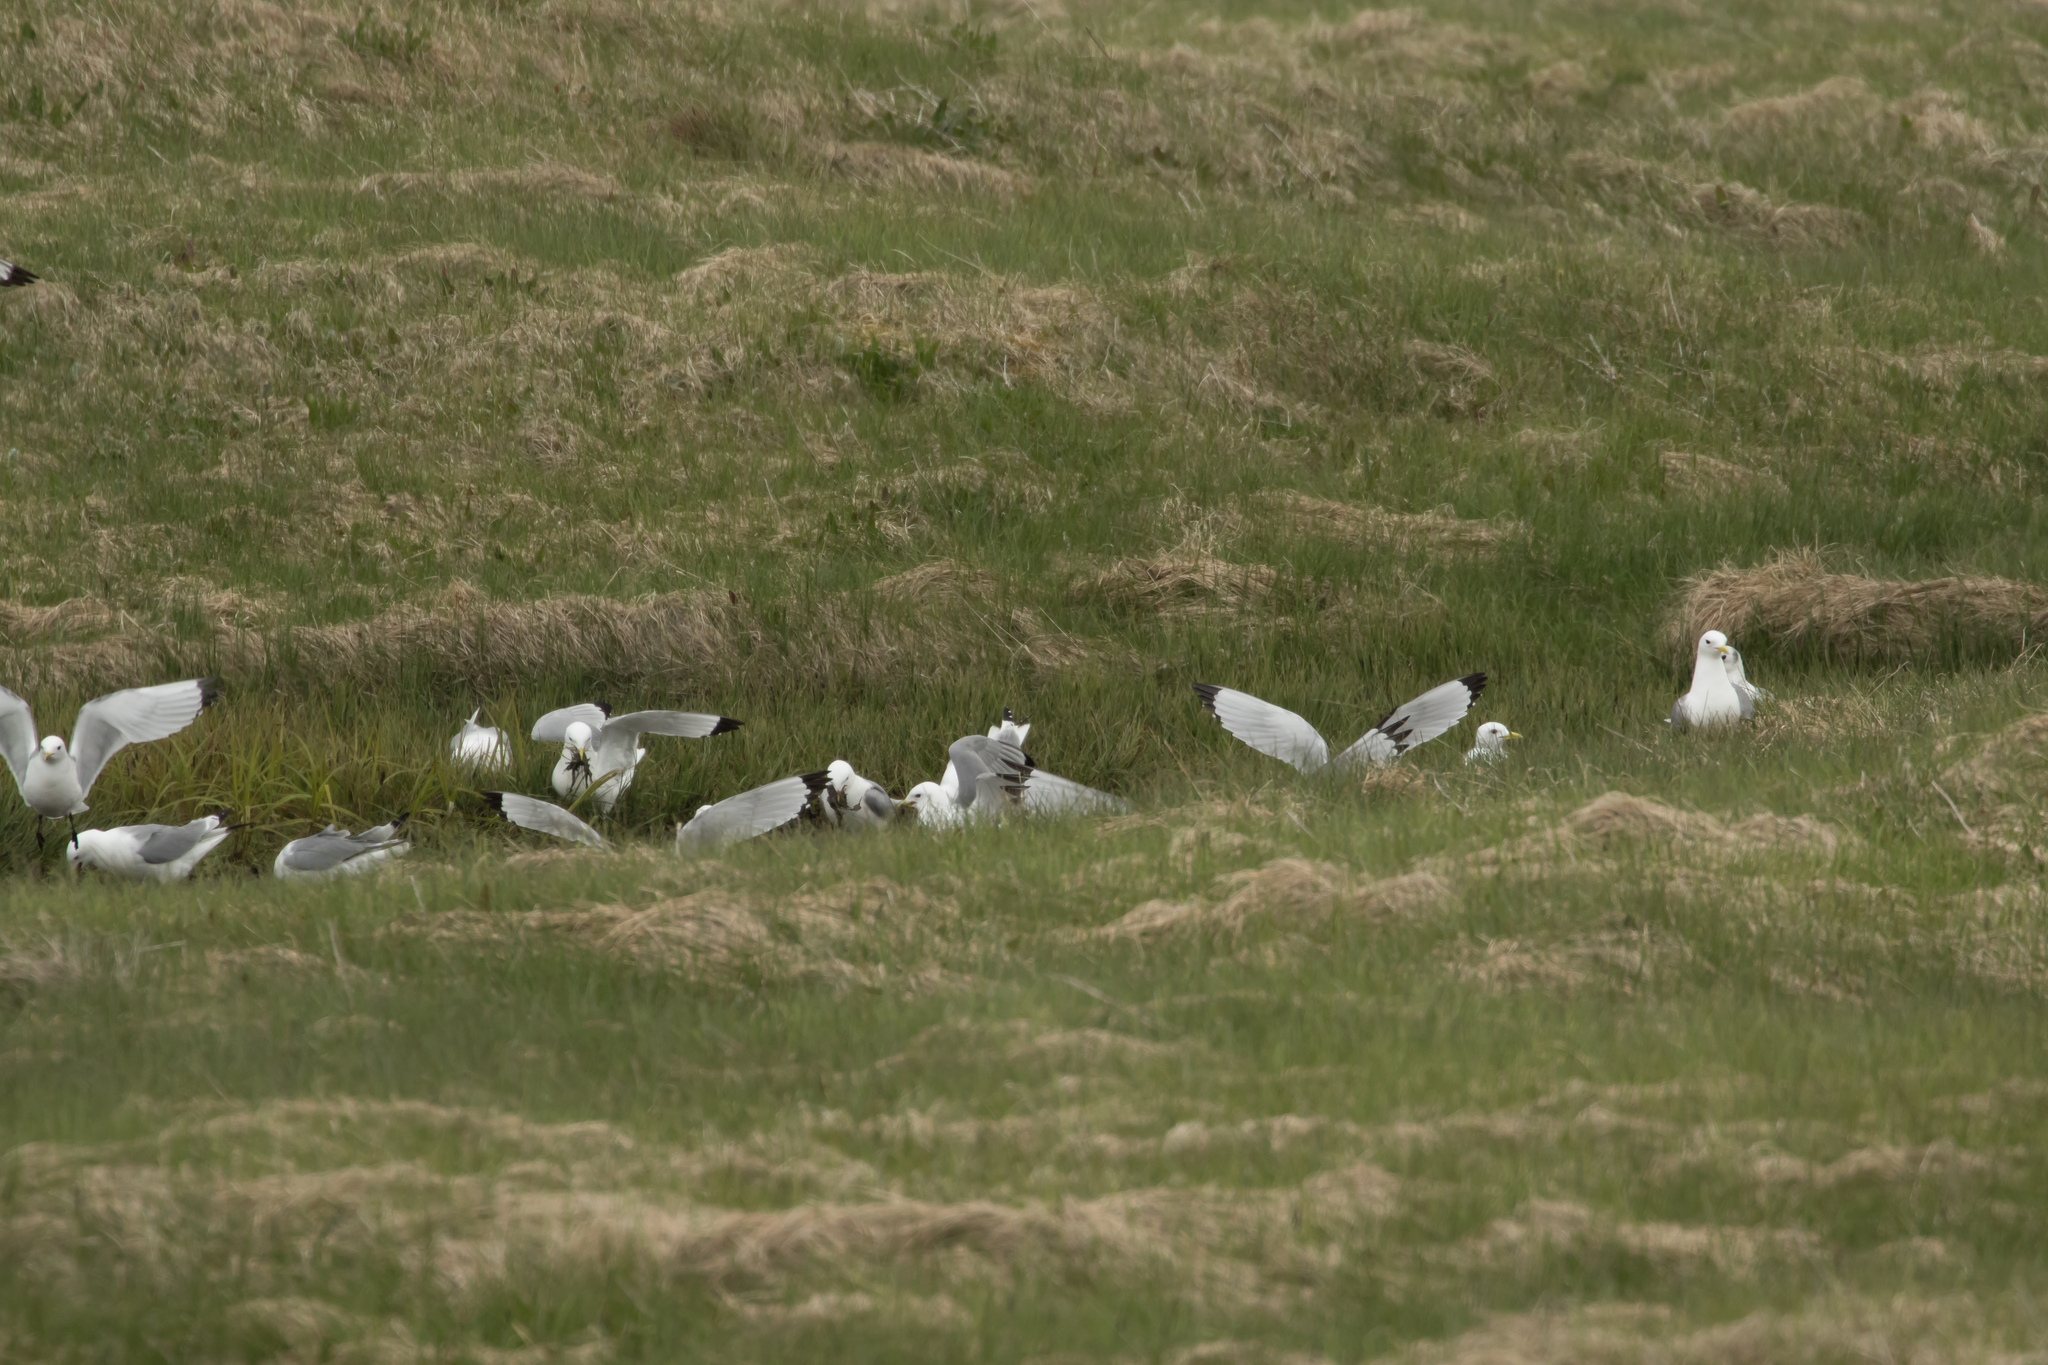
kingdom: Animalia
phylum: Chordata
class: Aves
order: Charadriiformes
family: Laridae
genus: Rissa
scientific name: Rissa tridactyla
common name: Black-legged kittiwake
